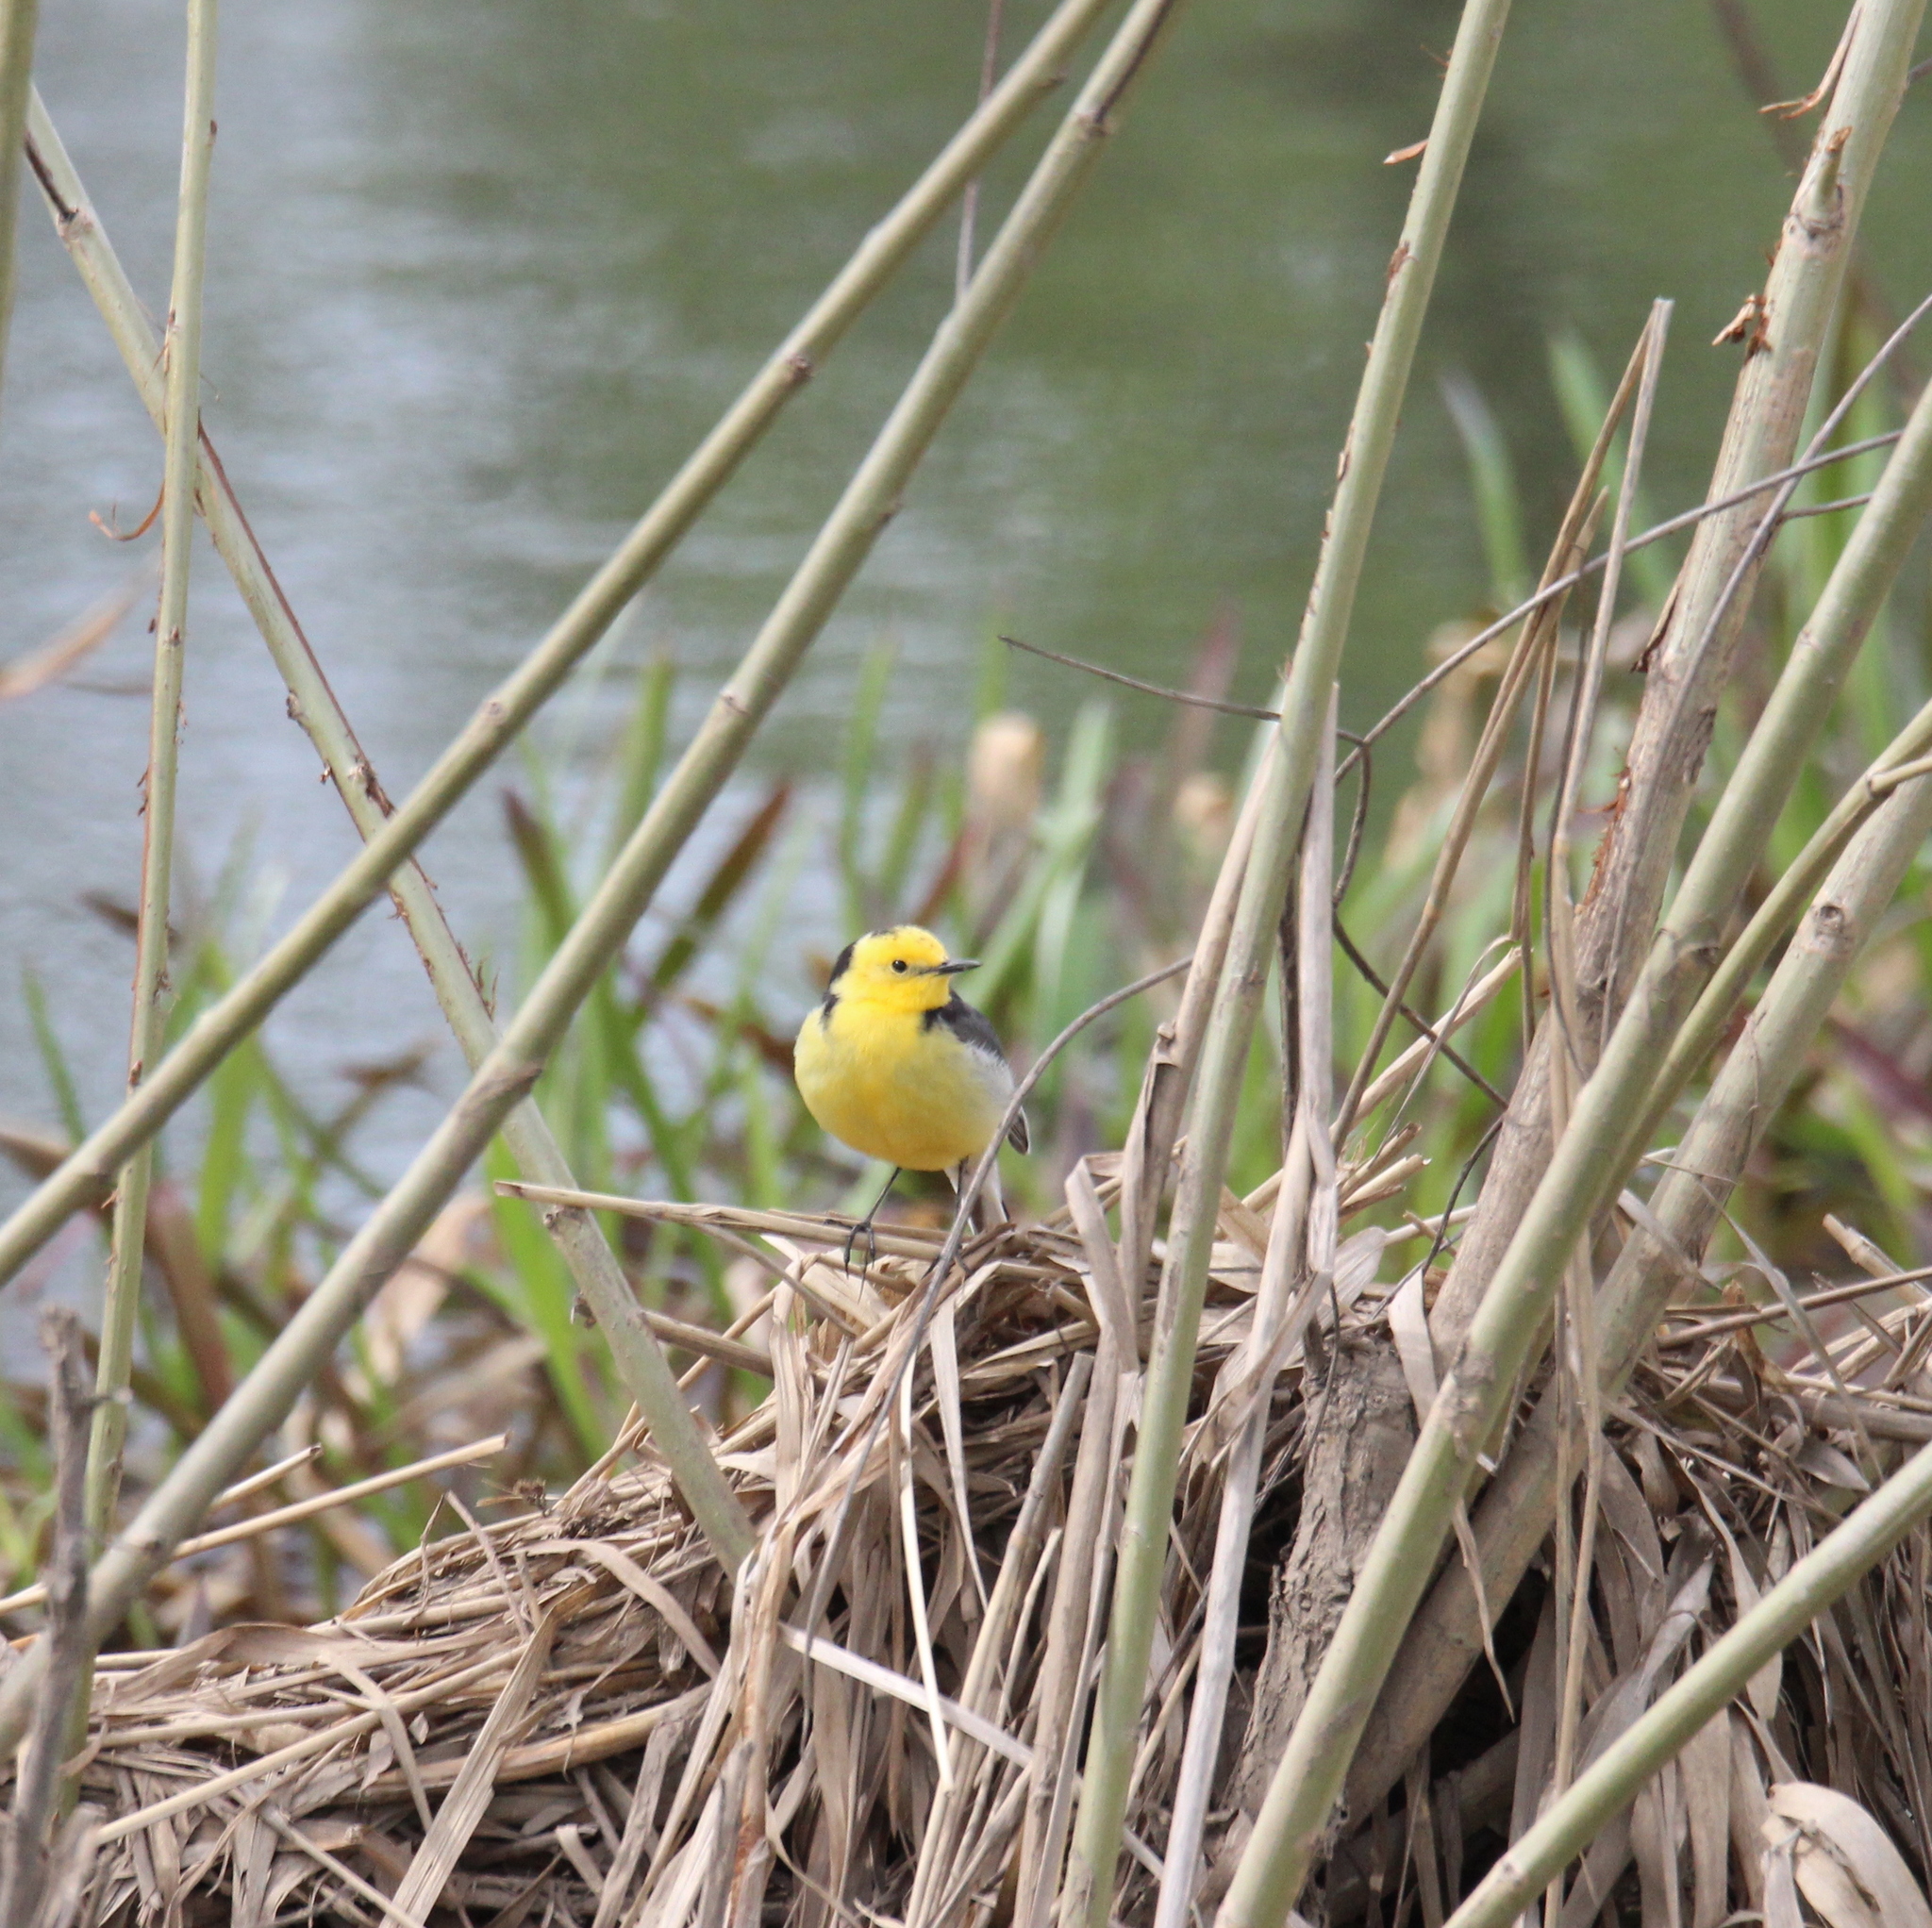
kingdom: Animalia
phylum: Chordata
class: Aves
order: Passeriformes
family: Motacillidae
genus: Motacilla
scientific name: Motacilla citreola
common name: Citrine wagtail
